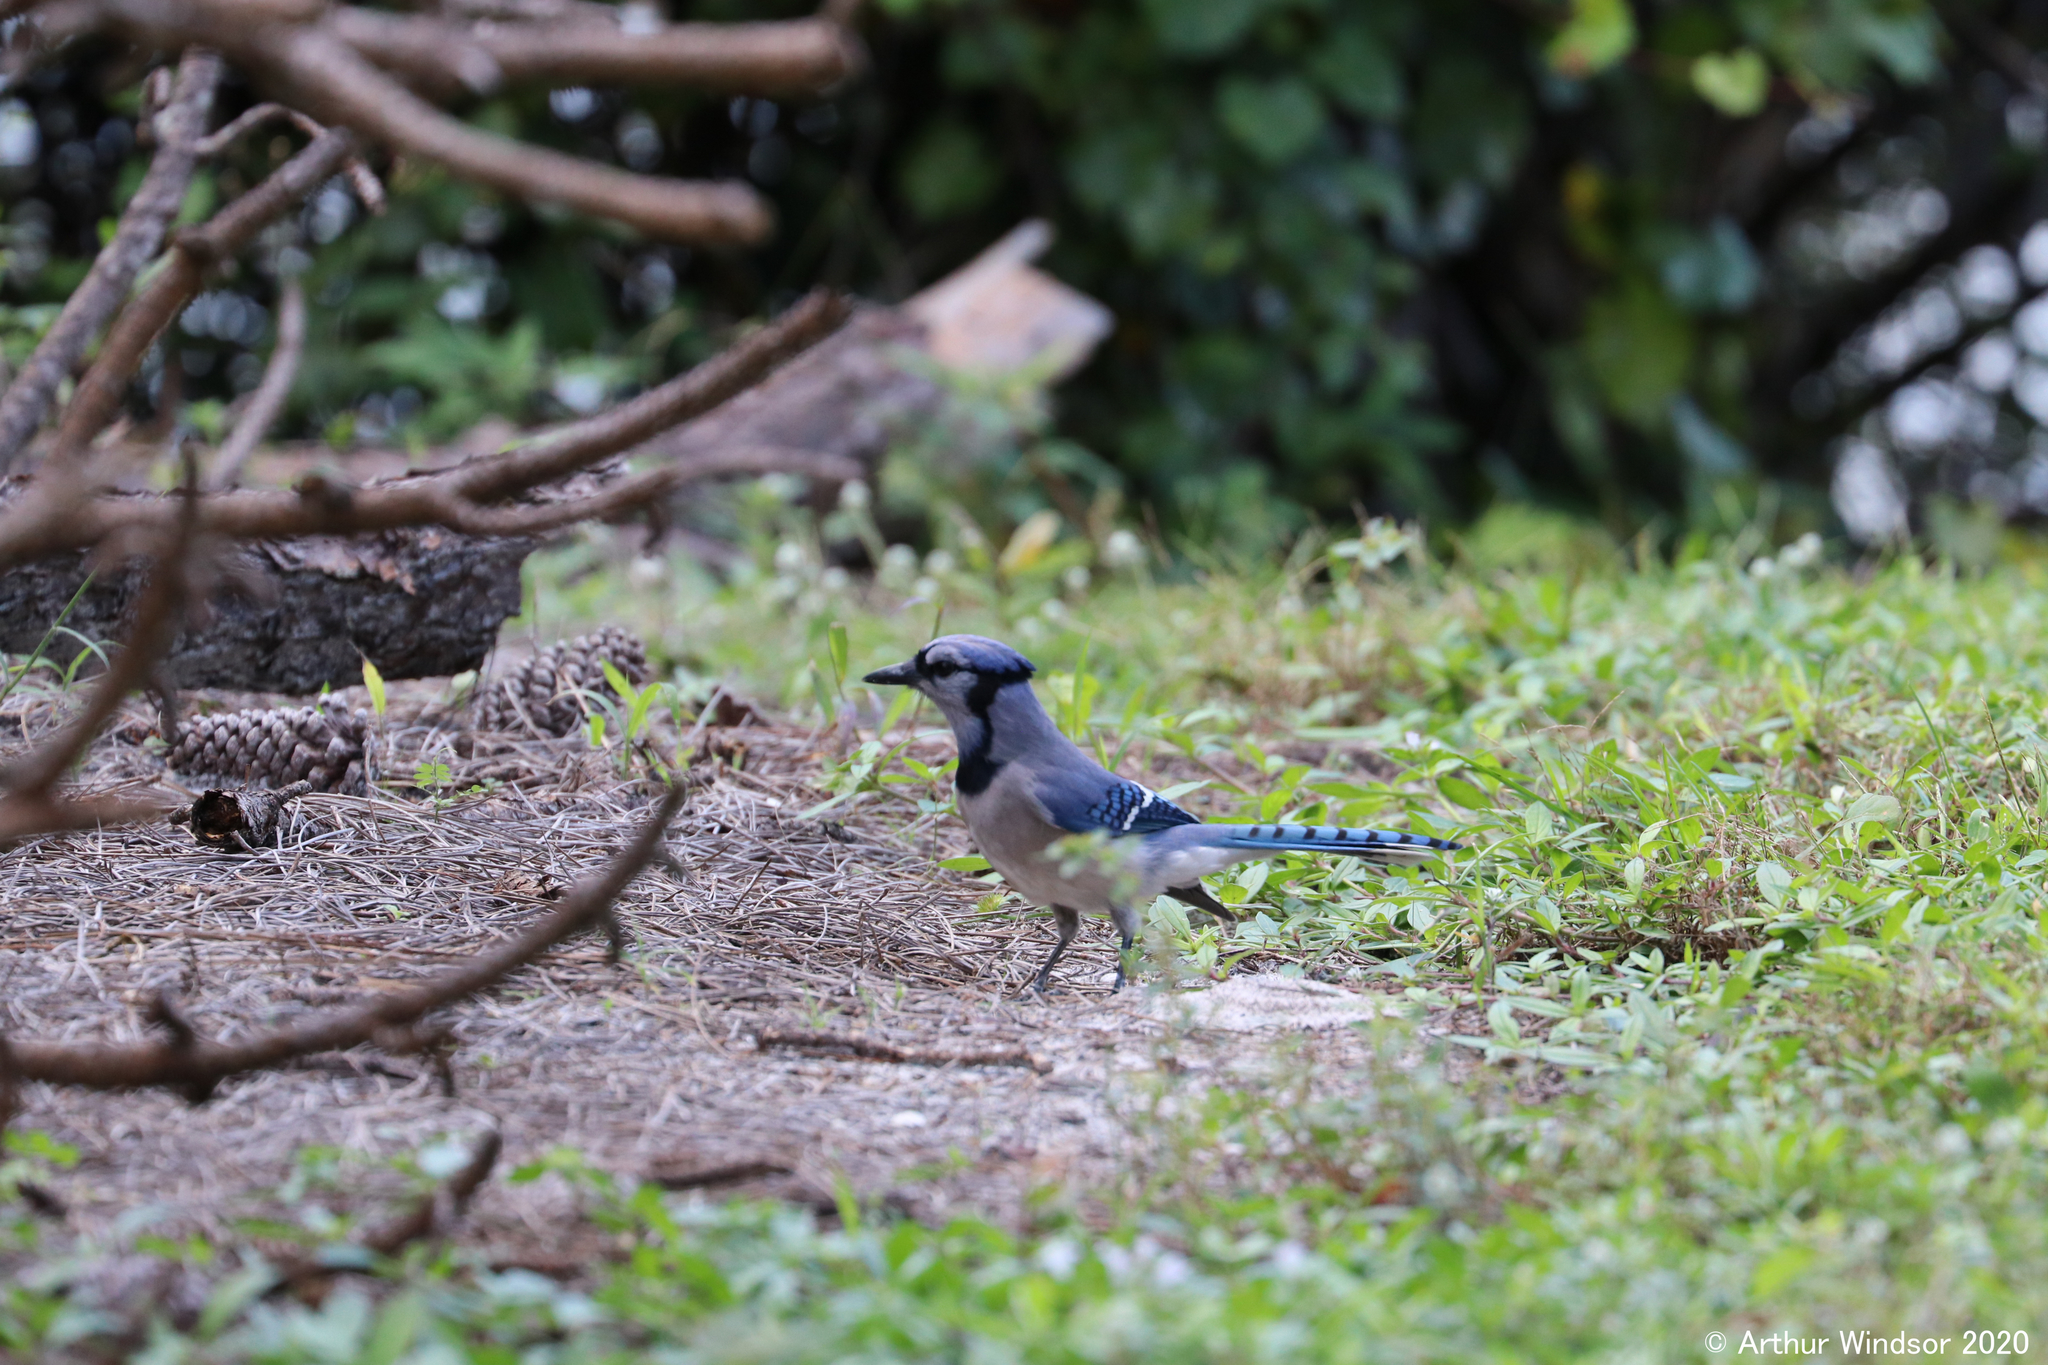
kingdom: Animalia
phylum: Chordata
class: Aves
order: Passeriformes
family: Corvidae
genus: Cyanocitta
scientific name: Cyanocitta cristata
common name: Blue jay
